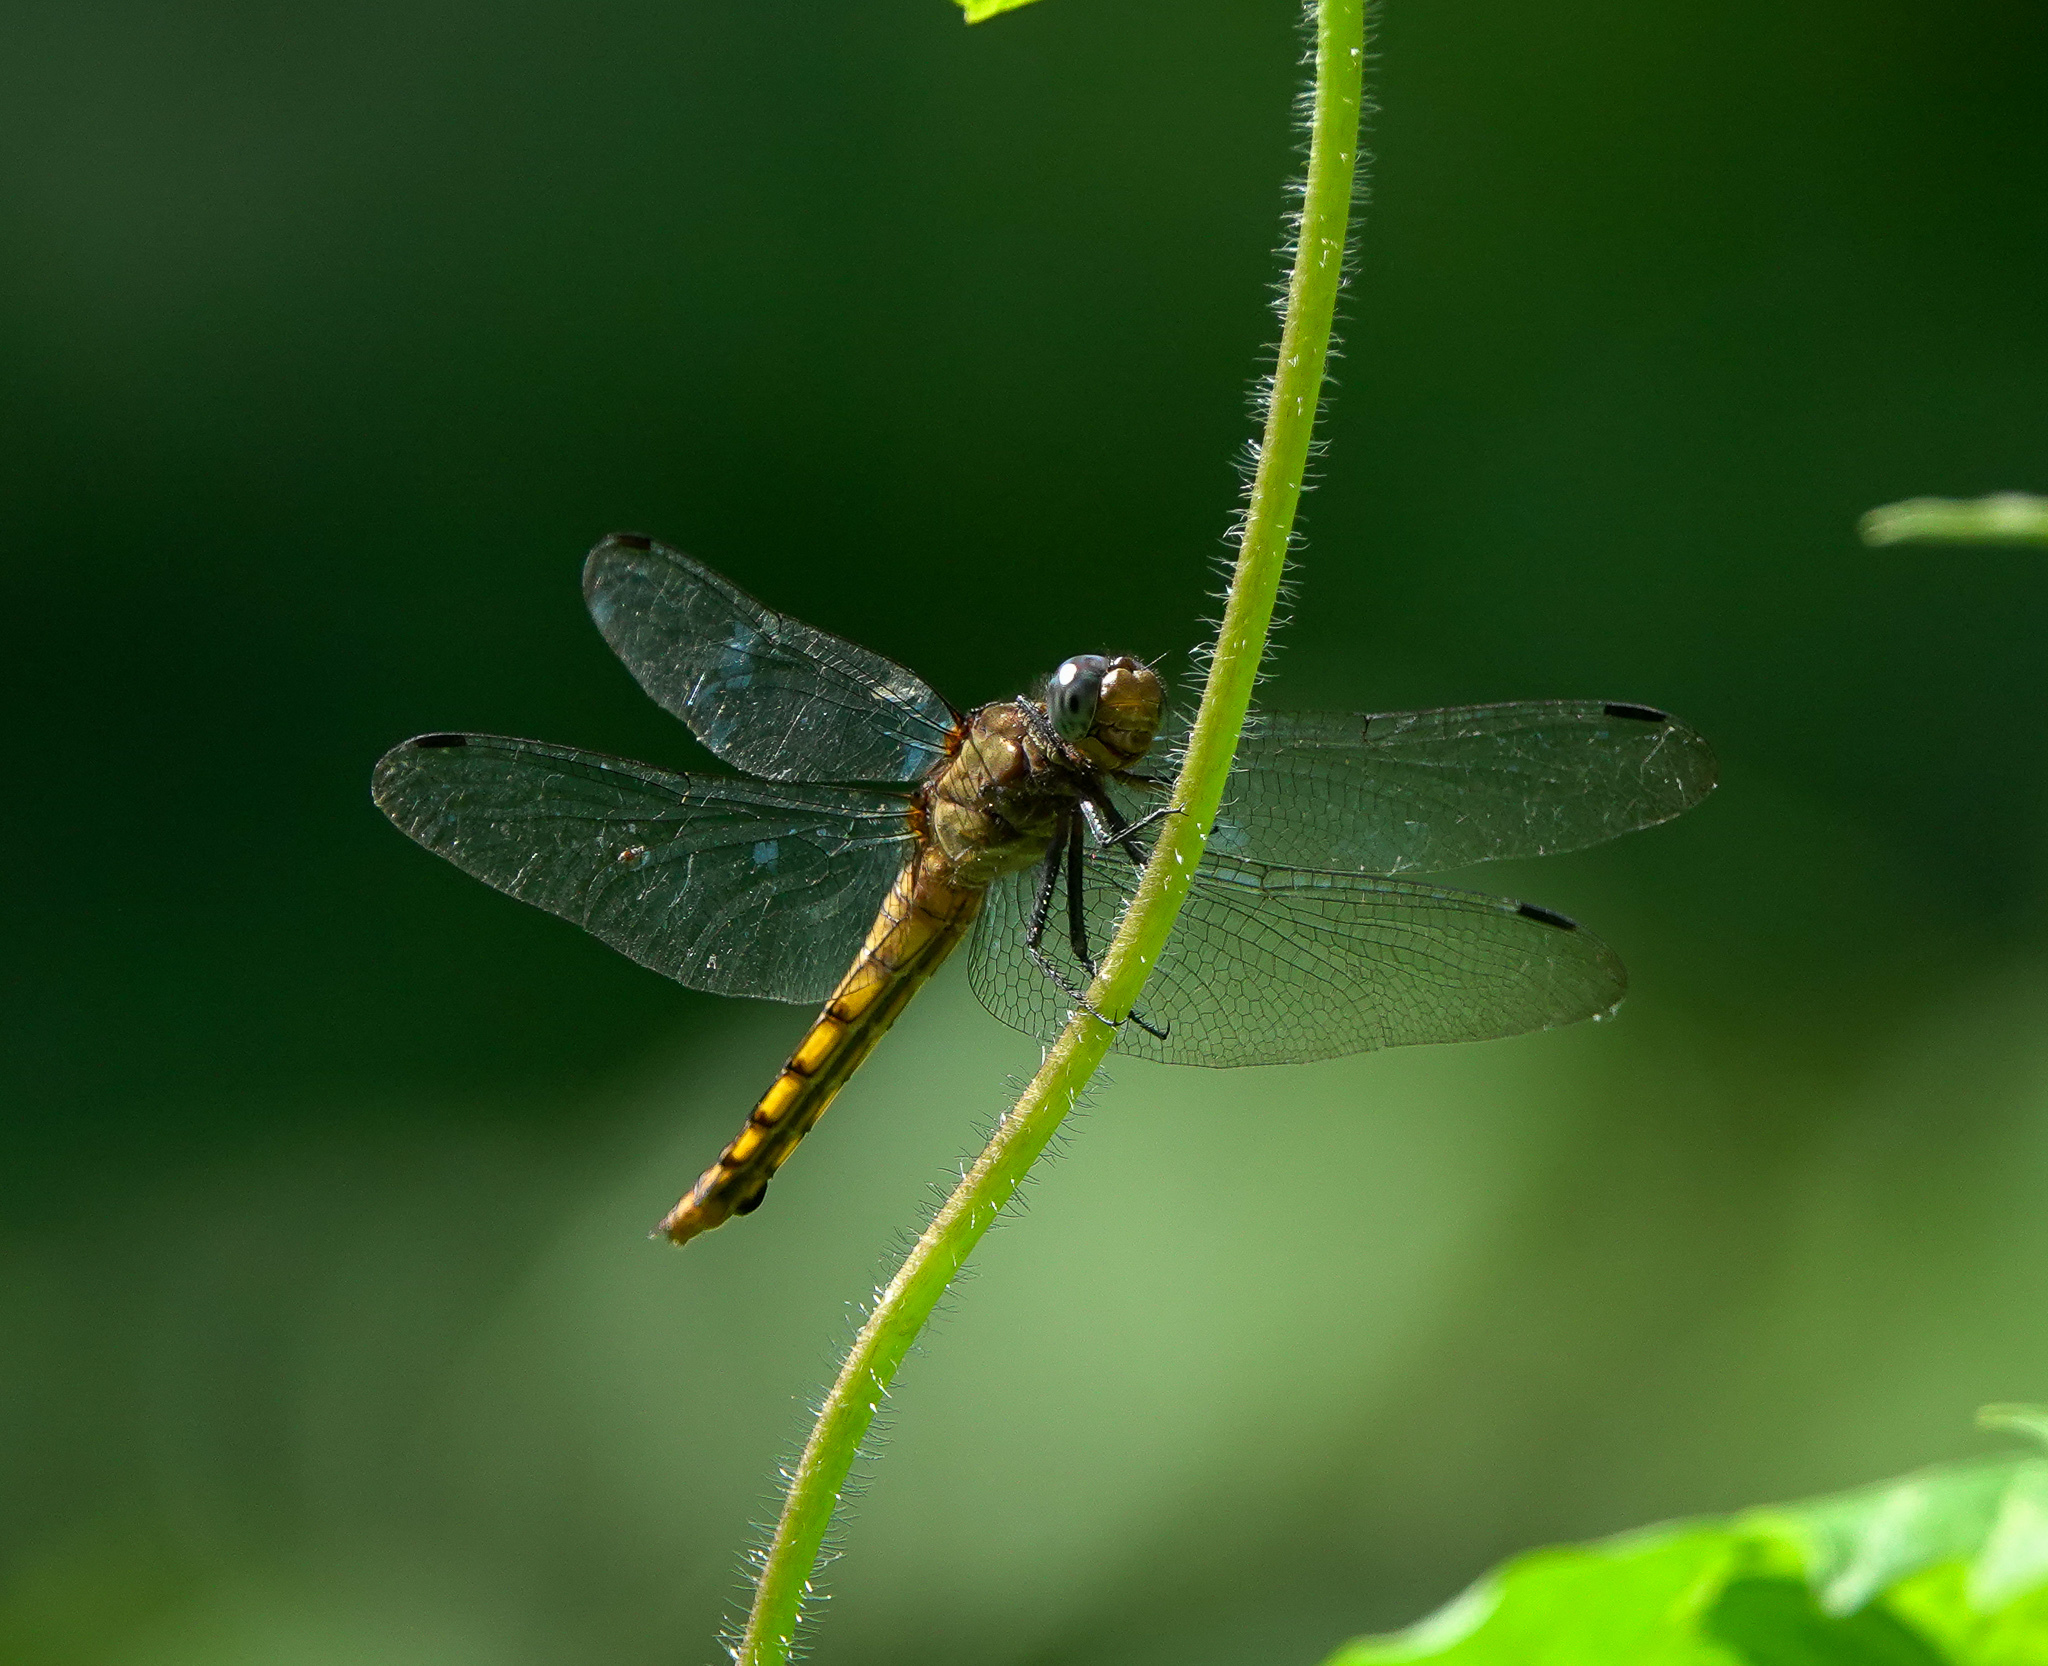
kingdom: Animalia
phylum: Arthropoda
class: Insecta
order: Odonata
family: Libellulidae
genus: Orthetrum
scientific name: Orthetrum pruinosum
